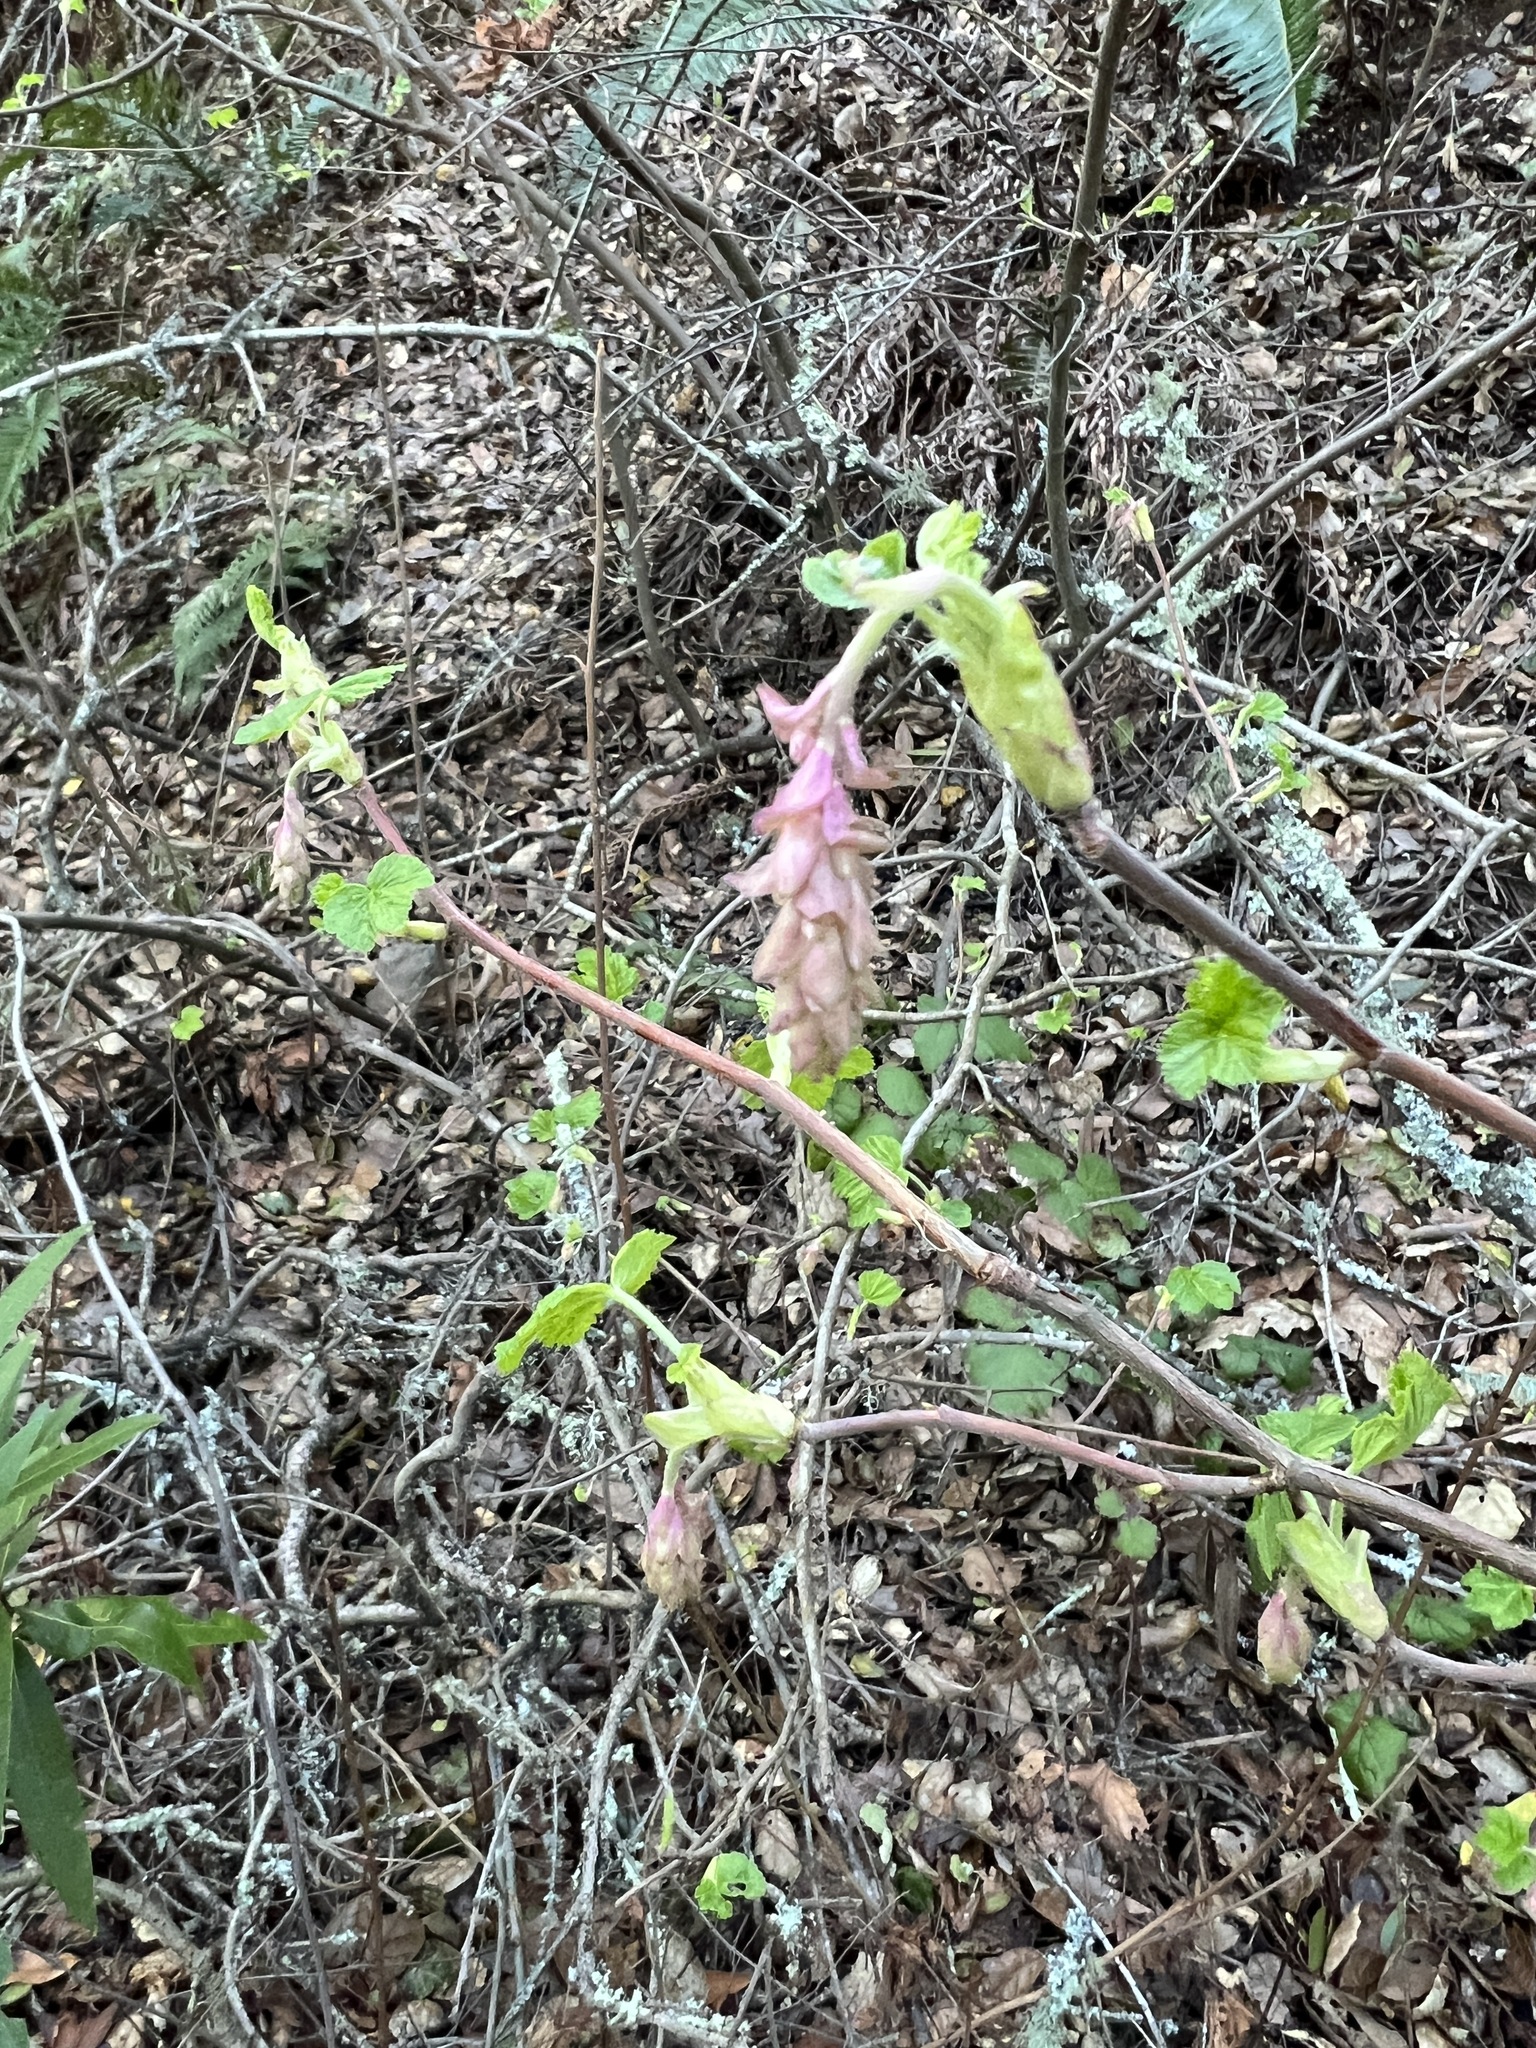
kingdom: Plantae
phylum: Tracheophyta
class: Magnoliopsida
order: Saxifragales
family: Grossulariaceae
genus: Ribes
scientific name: Ribes sanguineum
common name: Flowering currant
